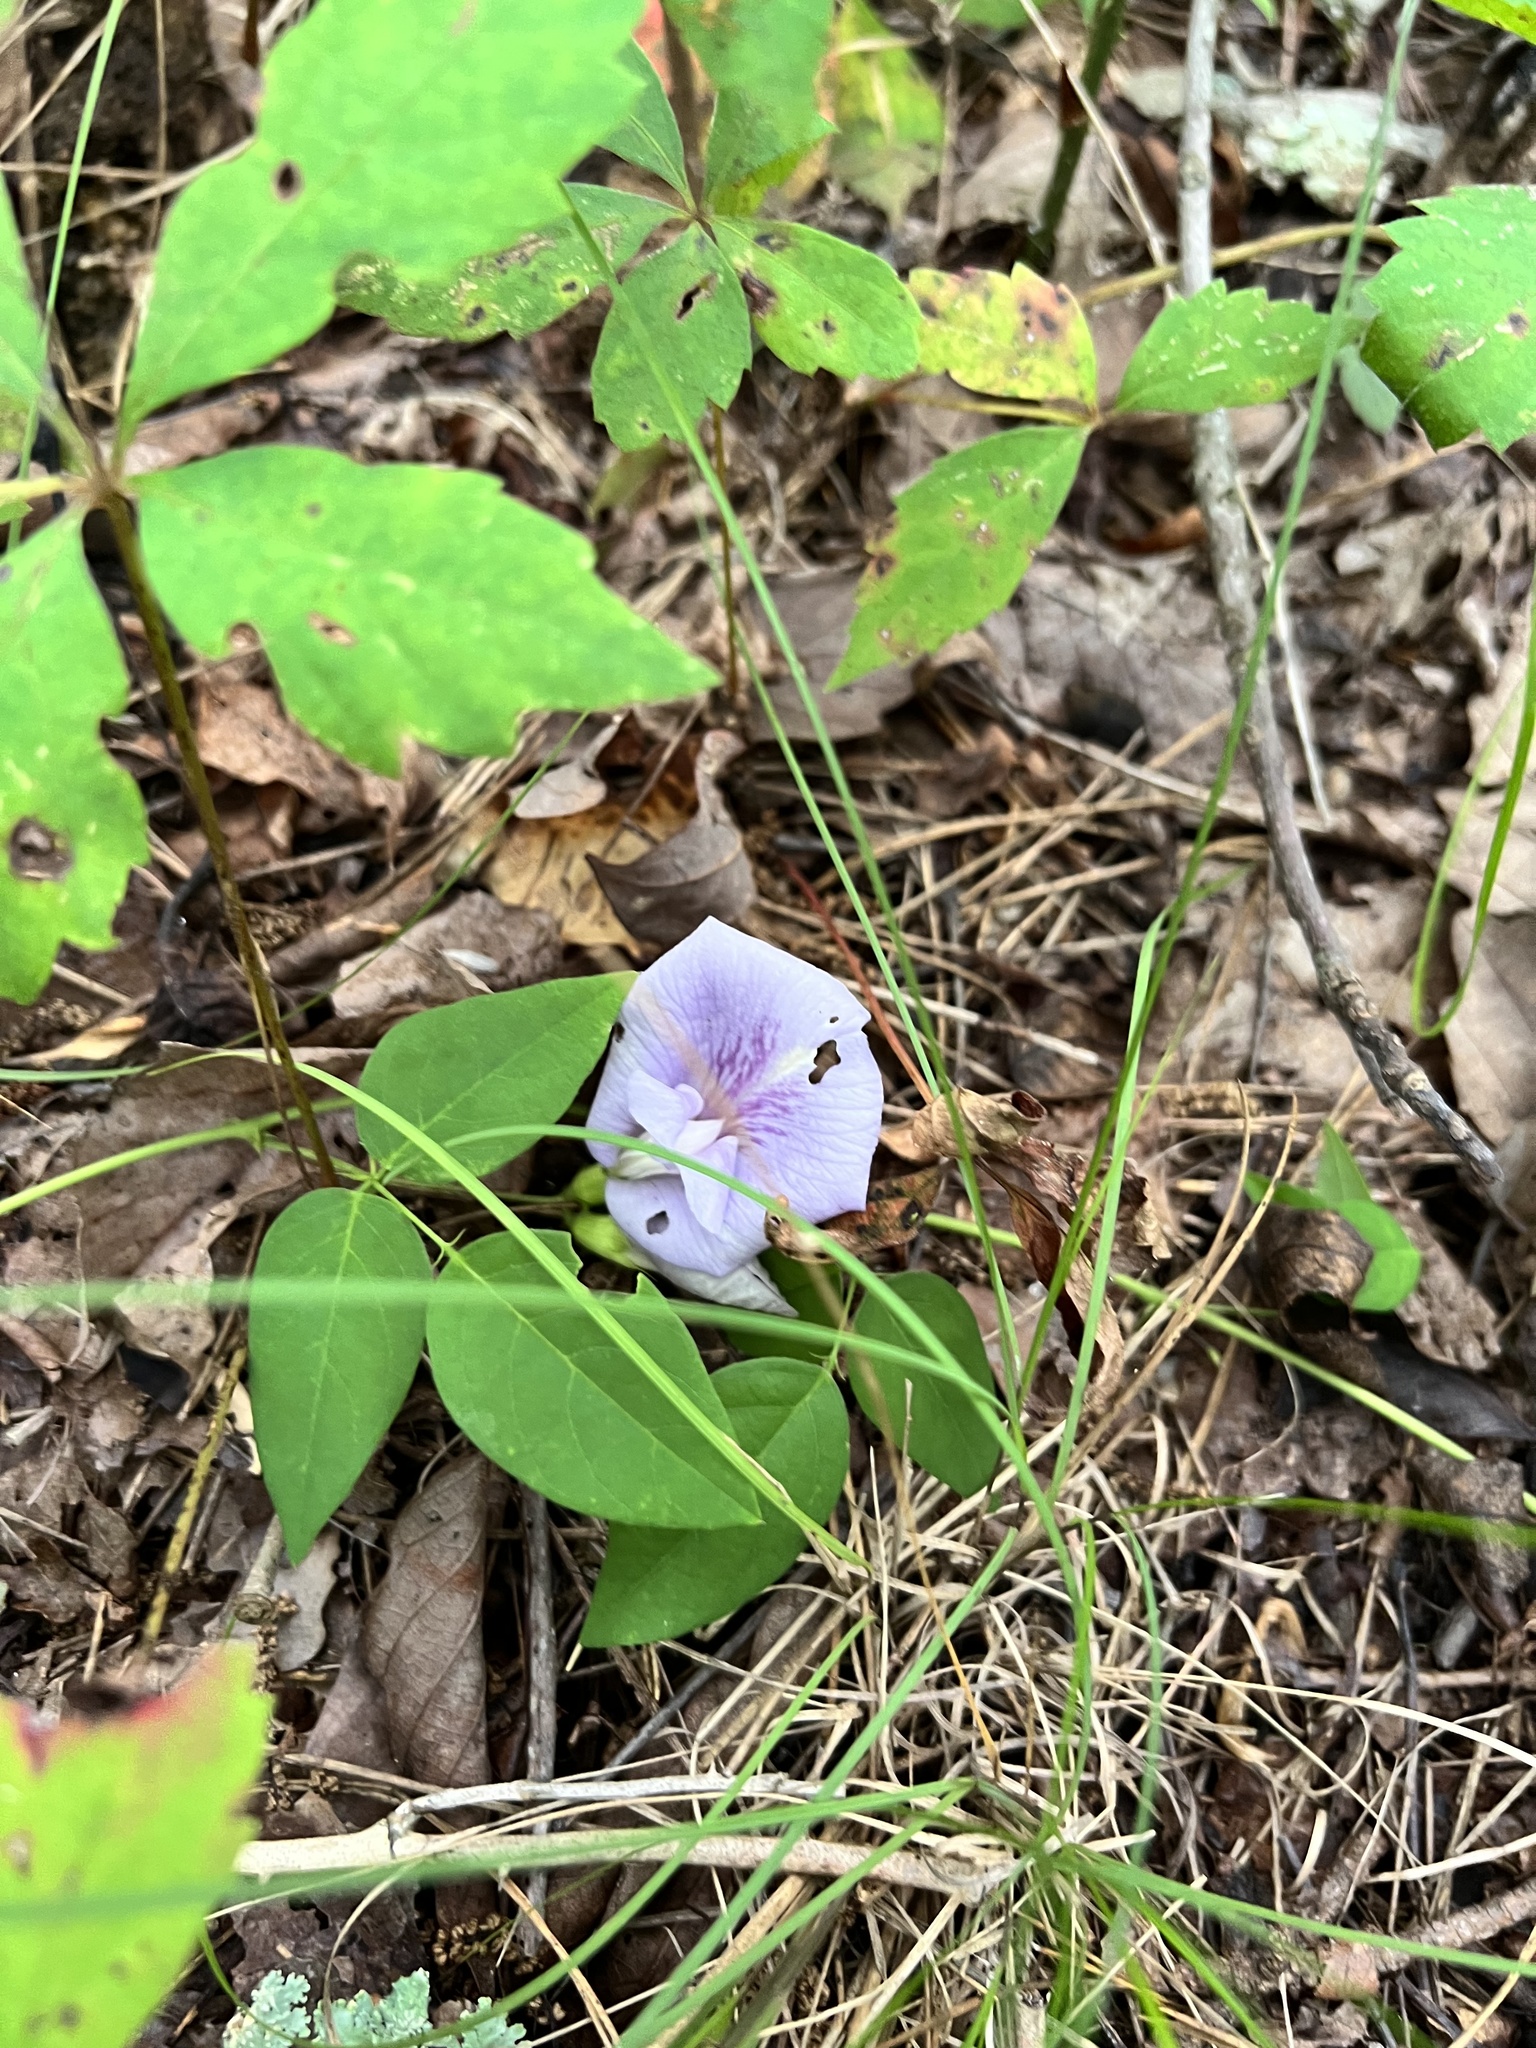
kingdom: Plantae
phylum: Tracheophyta
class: Magnoliopsida
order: Fabales
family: Fabaceae
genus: Clitoria
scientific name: Clitoria mariana
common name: Butterfly-pea
